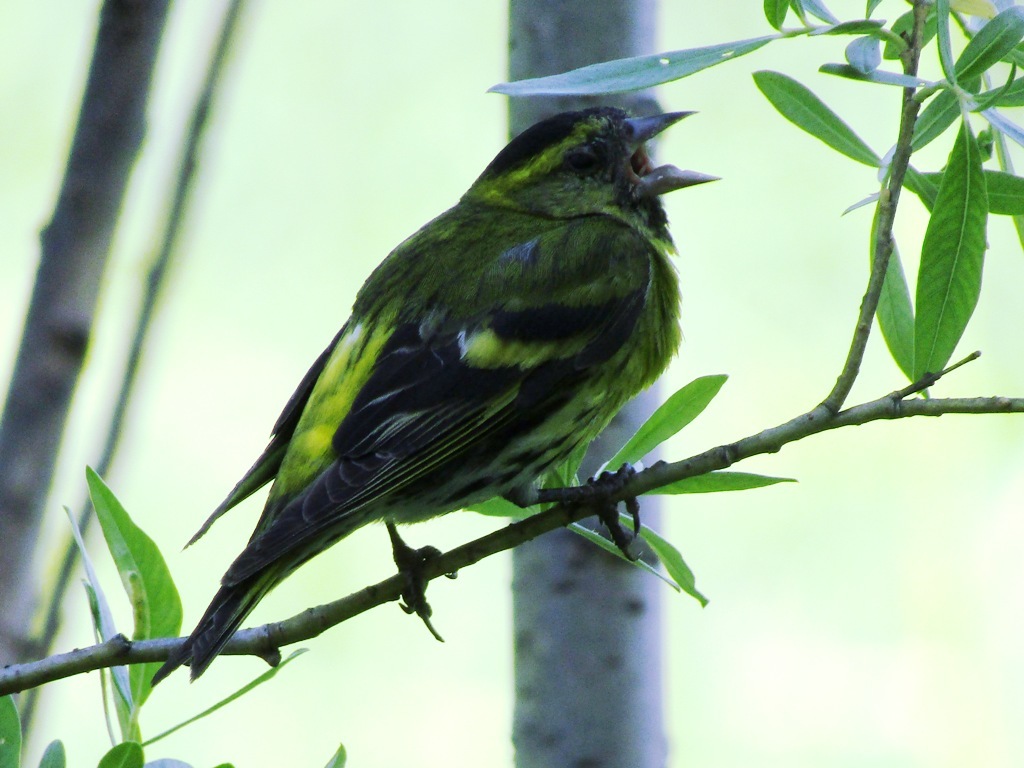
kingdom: Animalia
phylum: Chordata
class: Aves
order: Passeriformes
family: Fringillidae
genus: Spinus
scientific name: Spinus spinus
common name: Eurasian siskin
